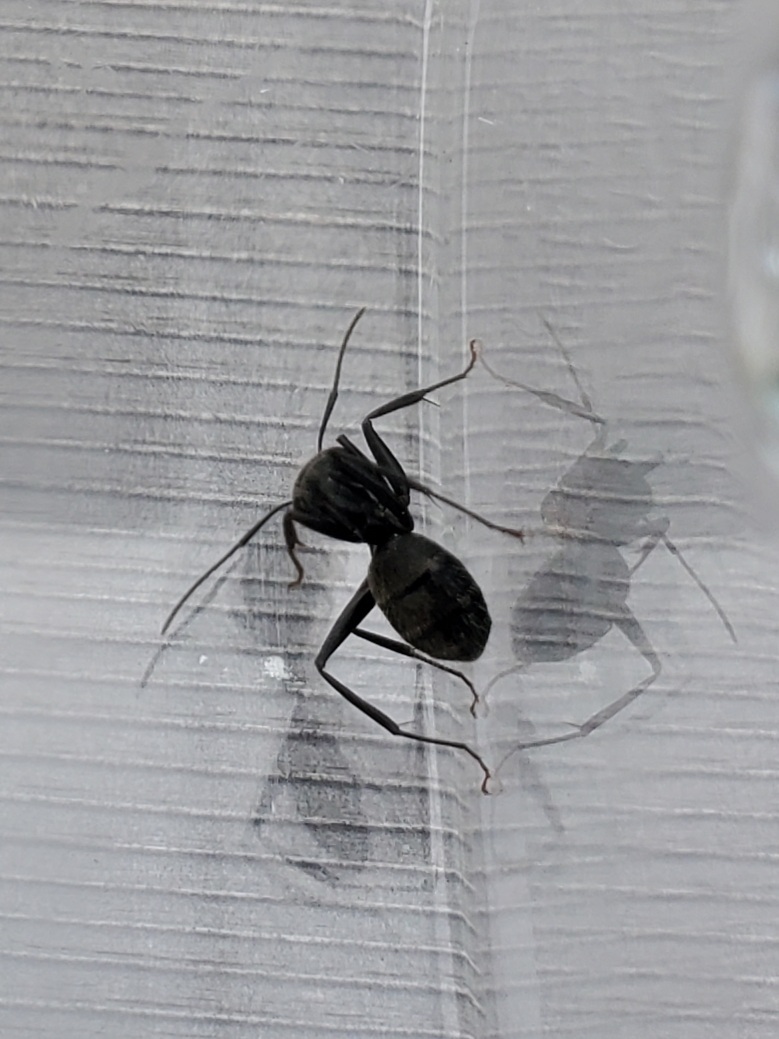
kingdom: Animalia
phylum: Arthropoda
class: Insecta
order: Hymenoptera
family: Formicidae
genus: Camponotus
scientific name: Camponotus pennsylvanicus
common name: Black carpenter ant
